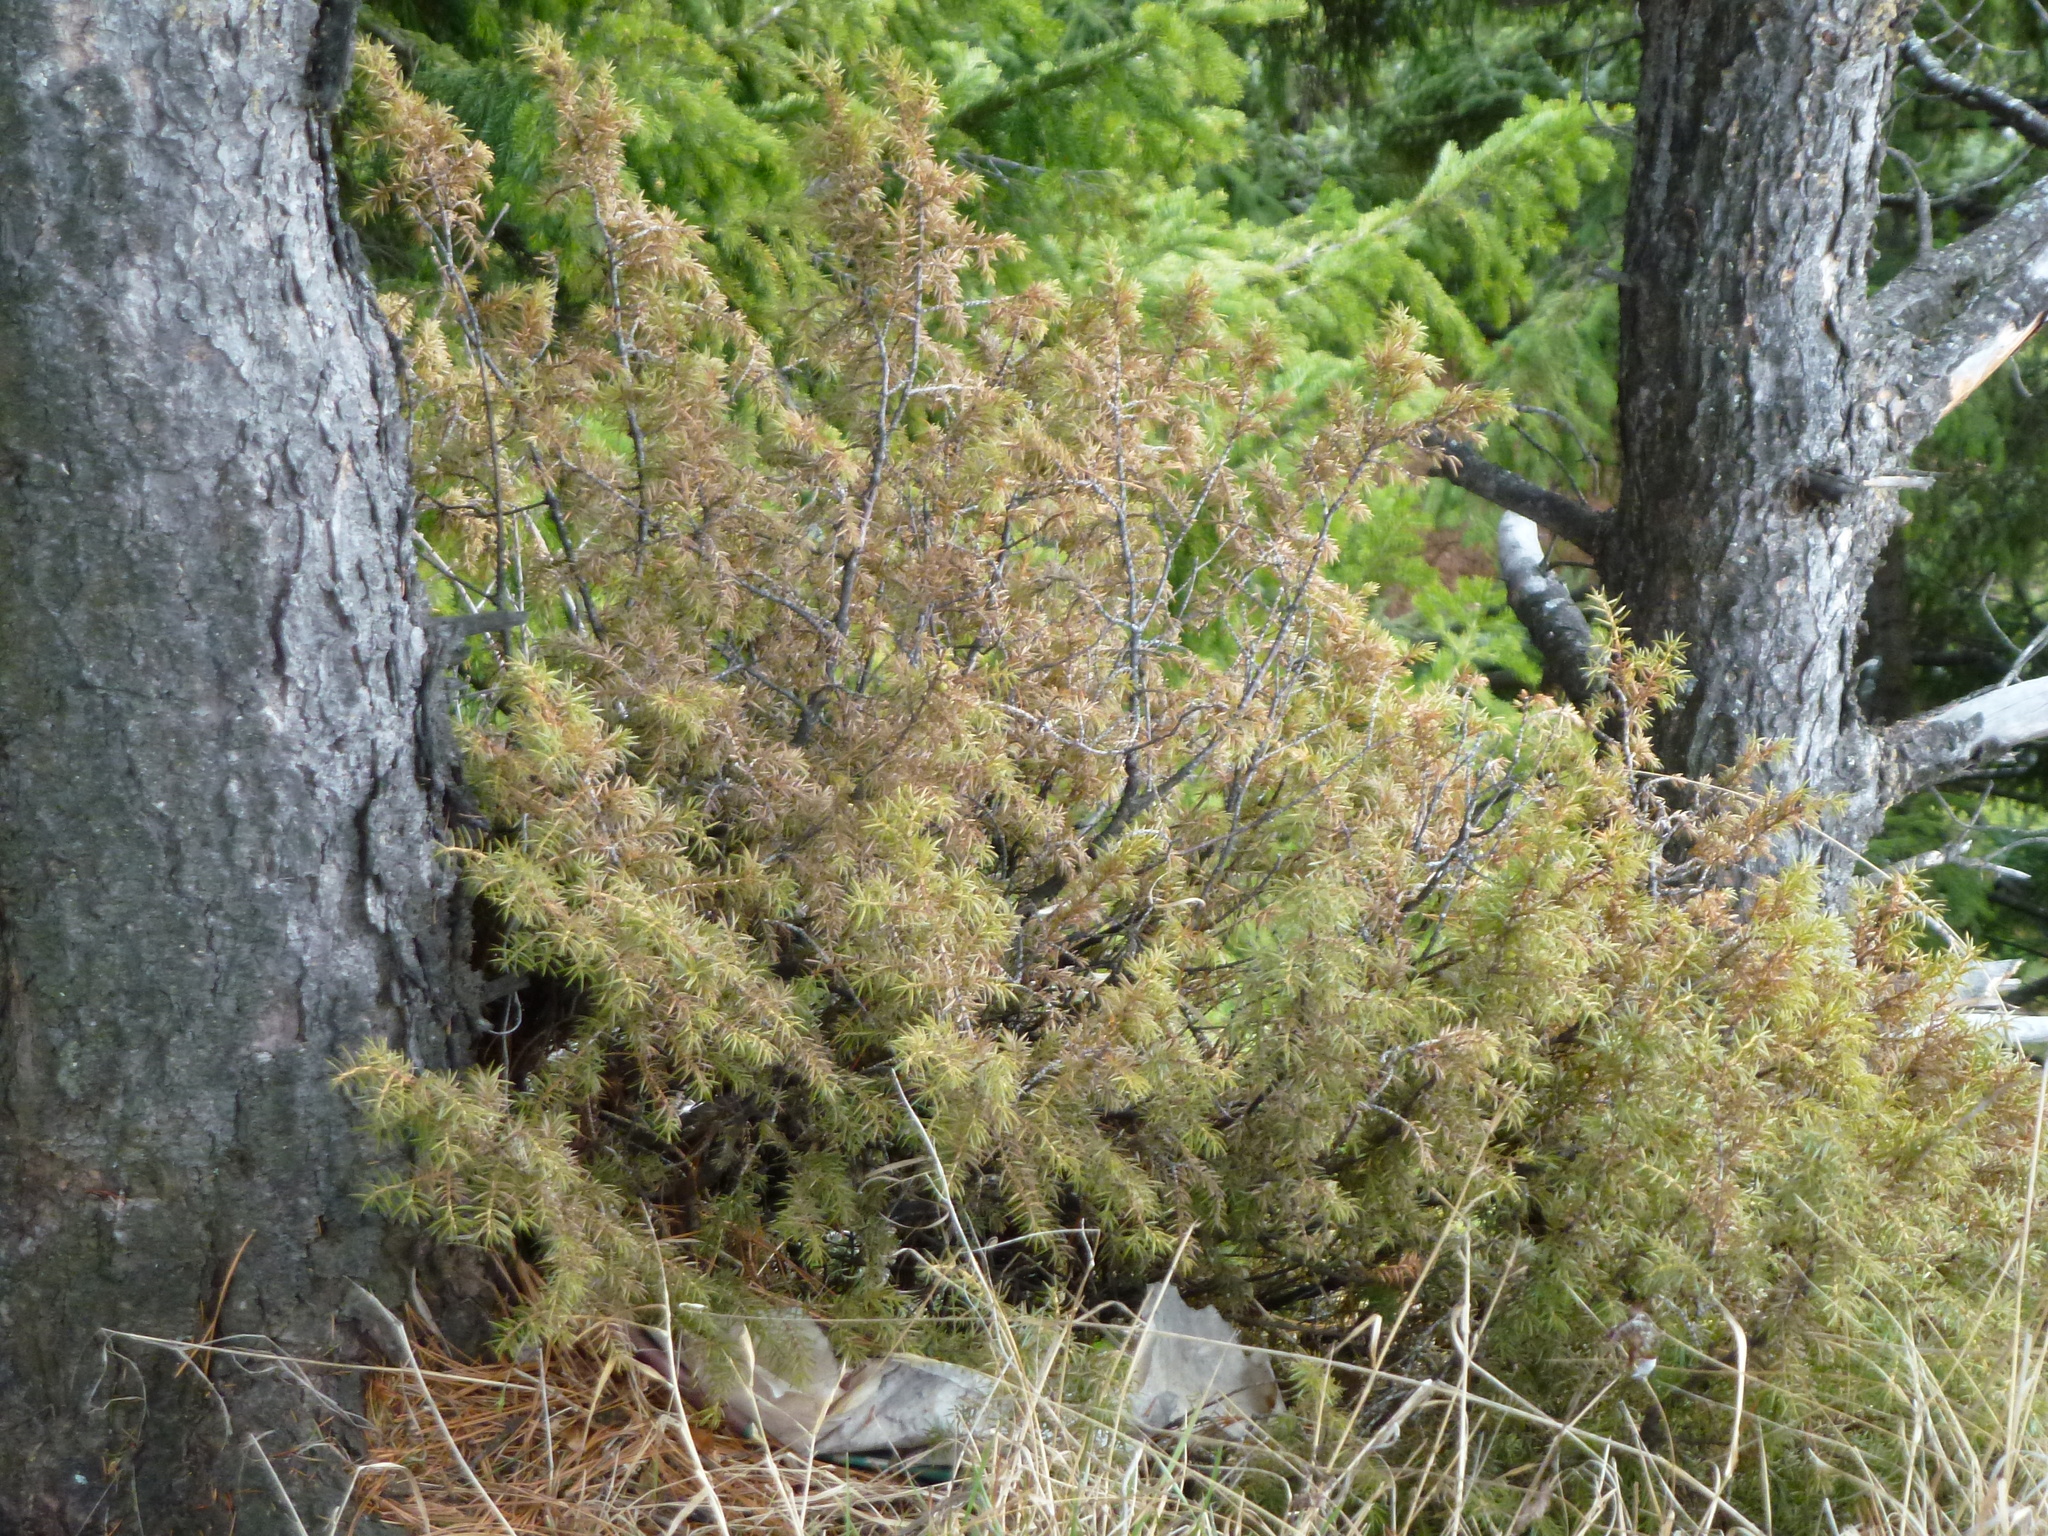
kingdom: Plantae
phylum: Tracheophyta
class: Pinopsida
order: Pinales
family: Cupressaceae
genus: Juniperus
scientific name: Juniperus communis
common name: Common juniper
